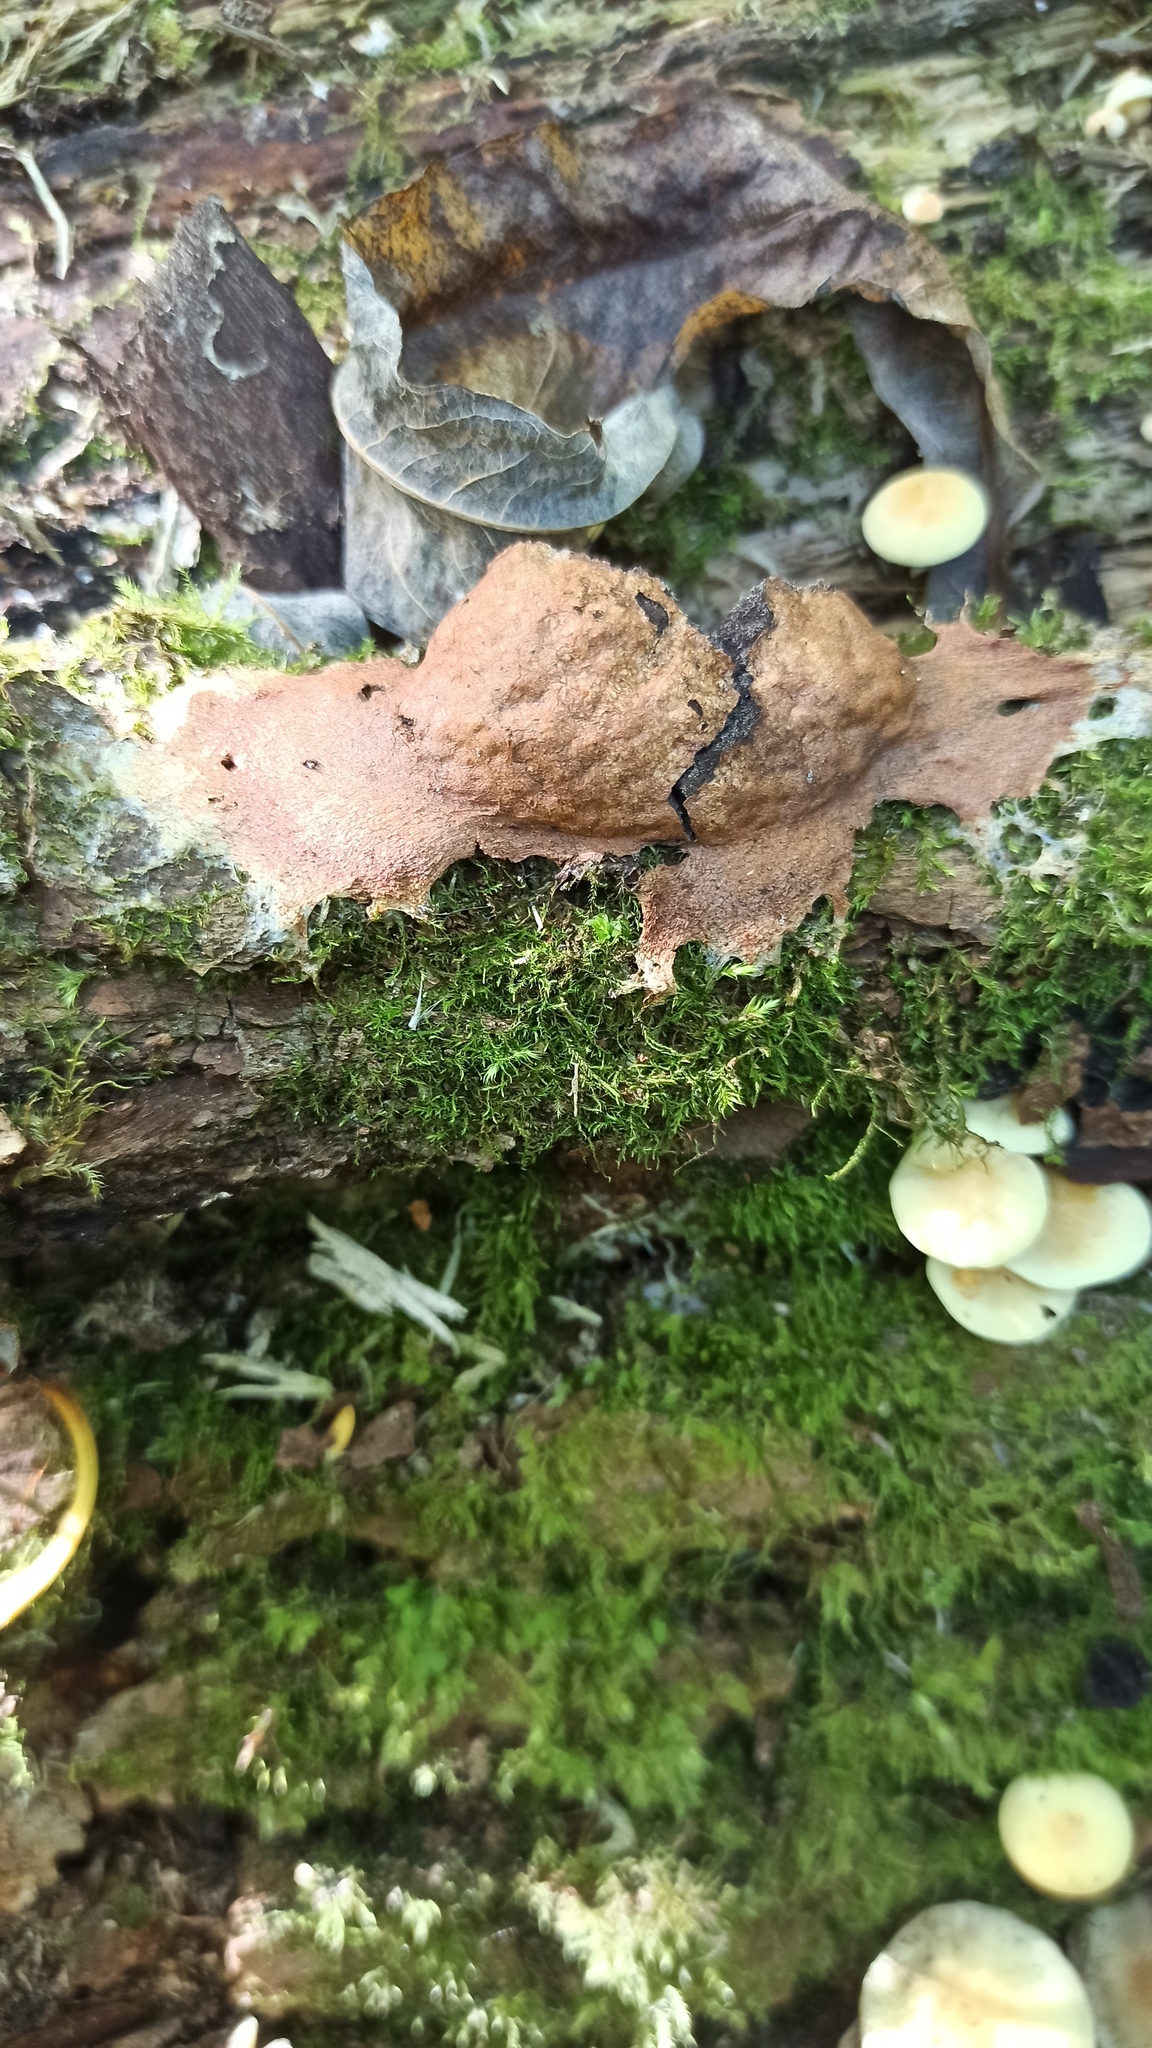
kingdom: Protozoa
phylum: Mycetozoa
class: Myxomycetes
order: Physarales
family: Physaraceae
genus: Fuligo
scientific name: Fuligo leviderma
